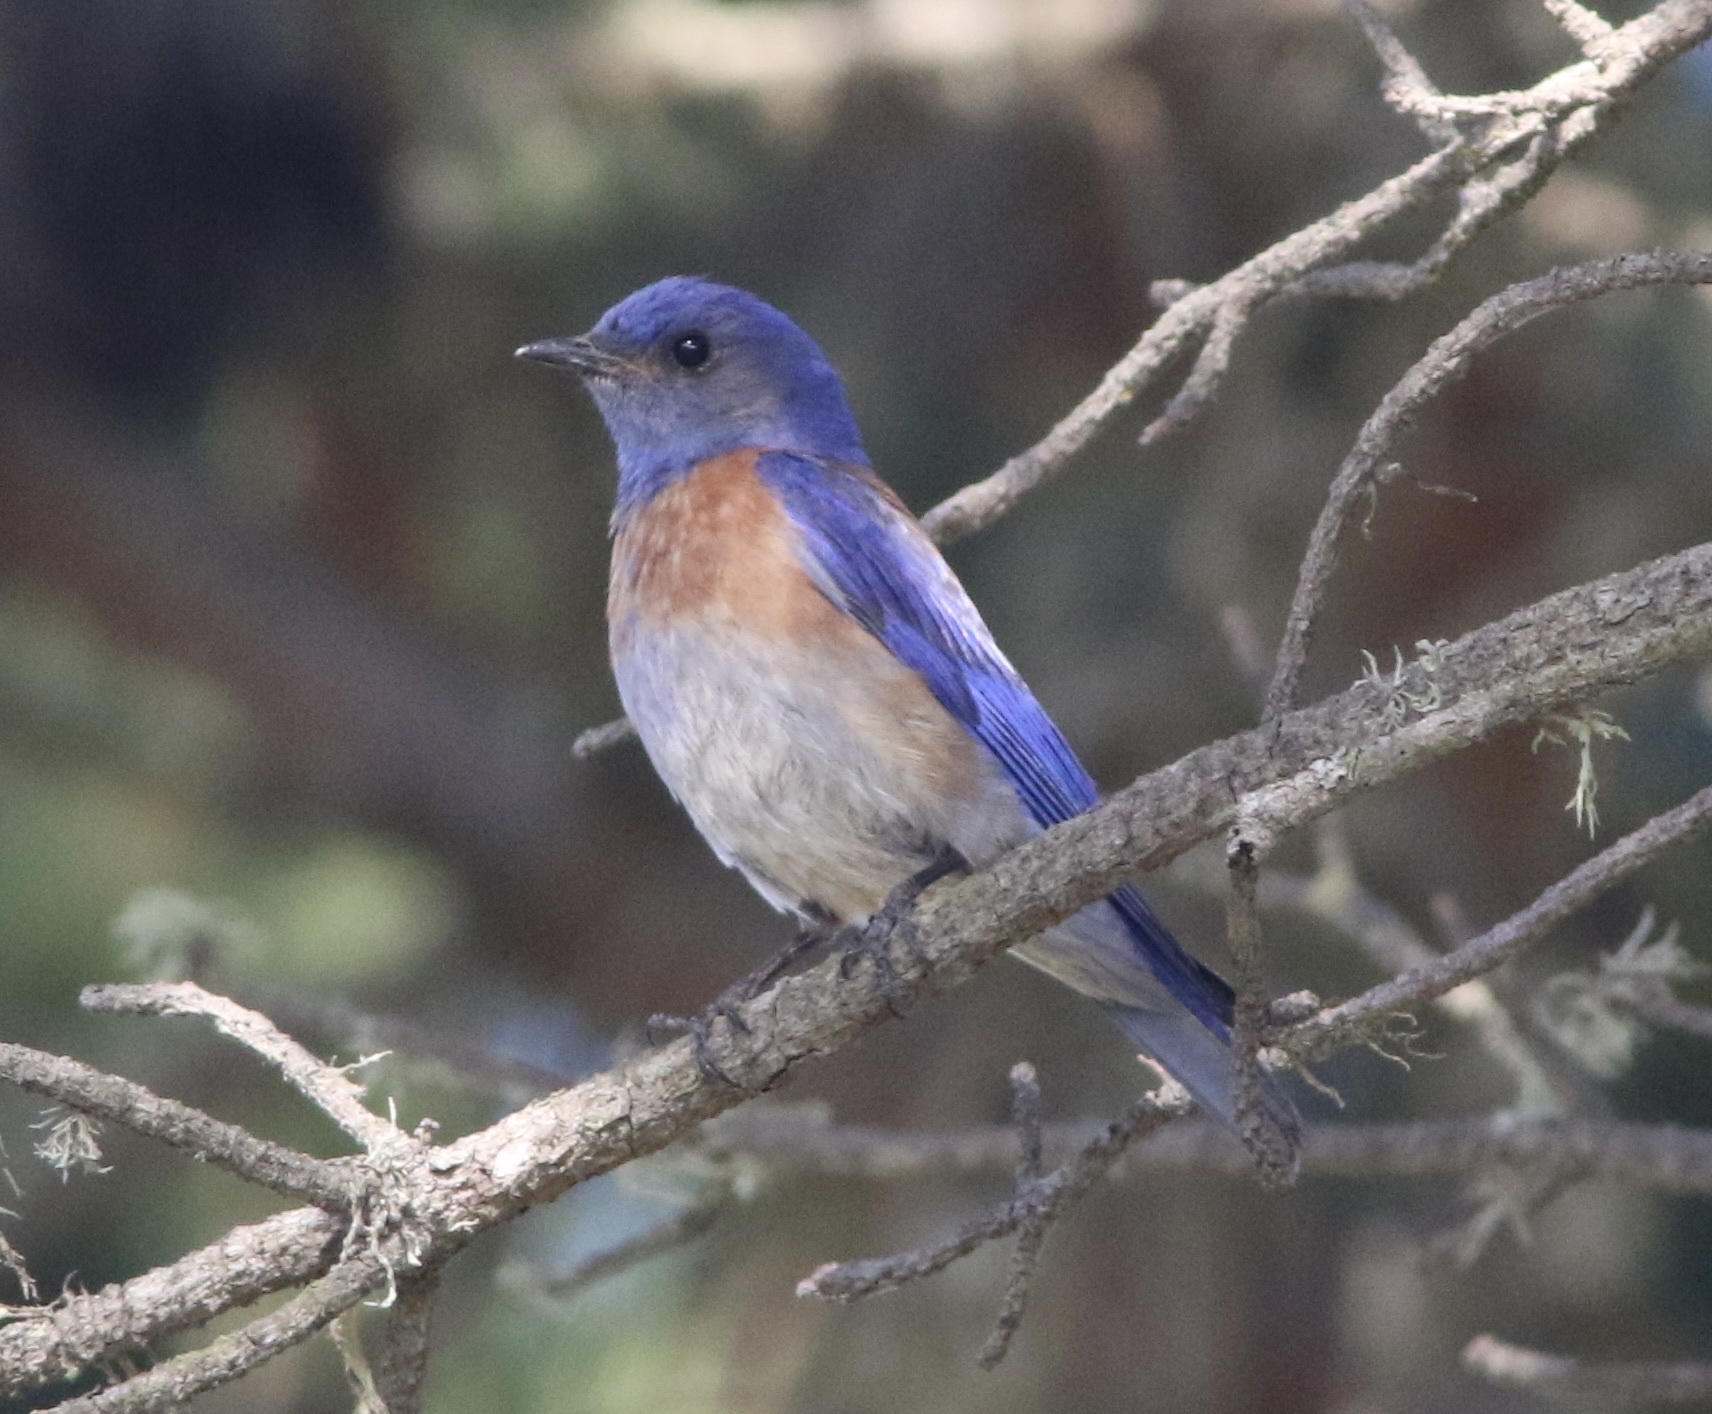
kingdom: Animalia
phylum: Chordata
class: Aves
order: Passeriformes
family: Turdidae
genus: Sialia
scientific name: Sialia mexicana
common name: Western bluebird
